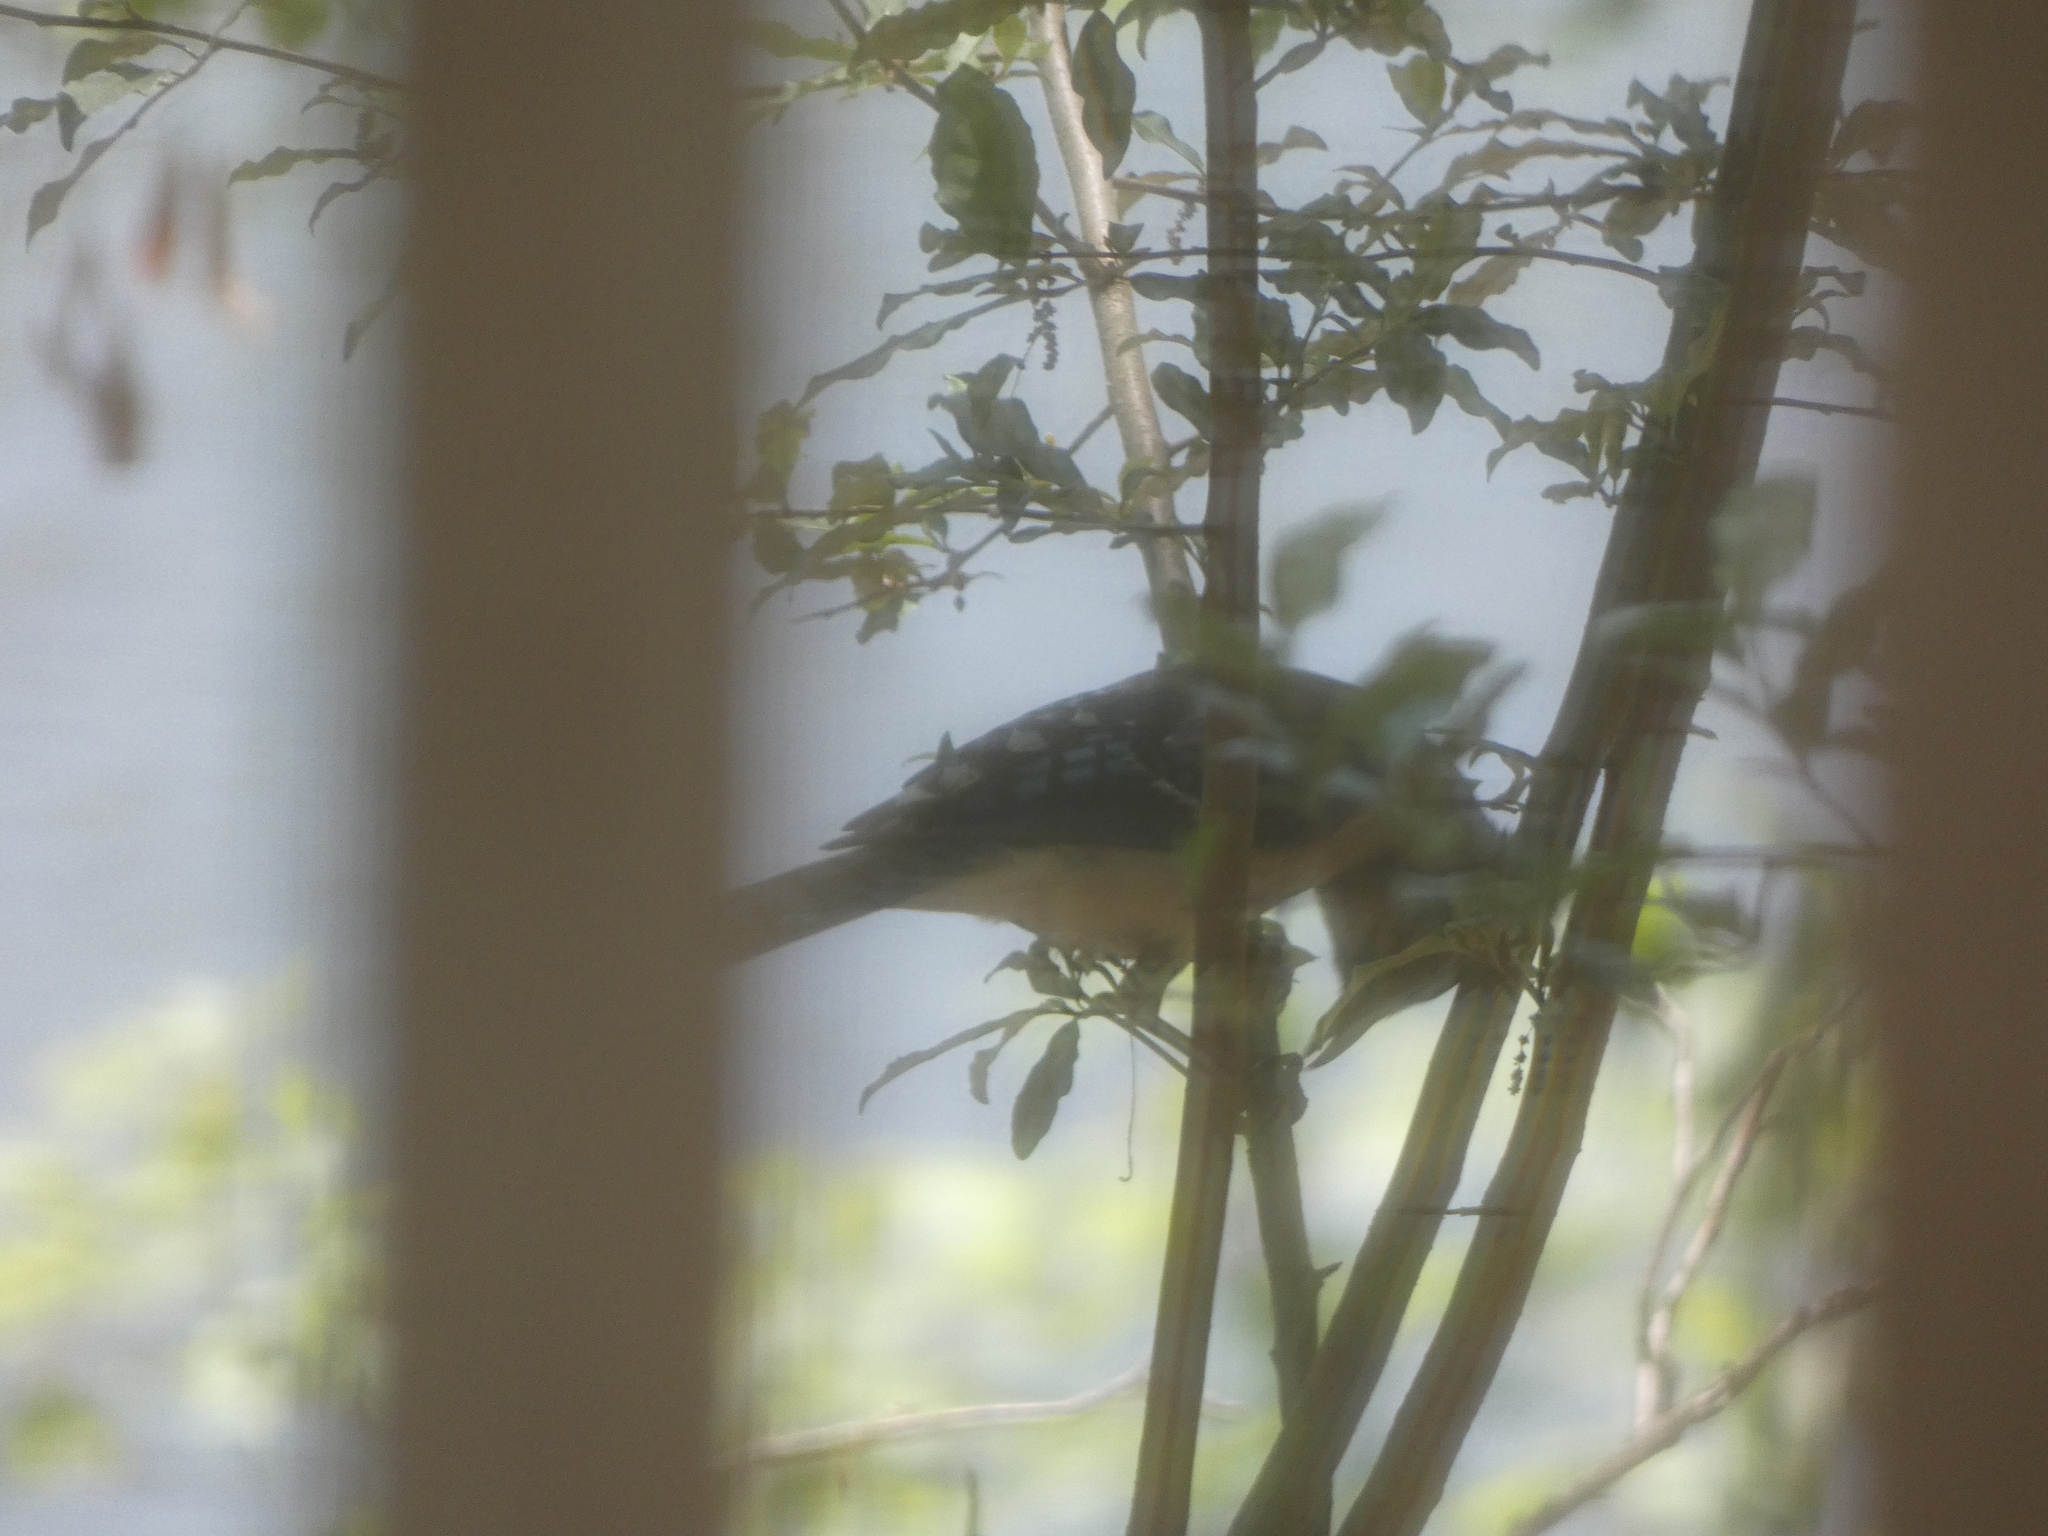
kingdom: Animalia
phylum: Chordata
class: Aves
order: Passeriformes
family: Corvidae
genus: Cyanocitta
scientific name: Cyanocitta cristata
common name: Blue jay
